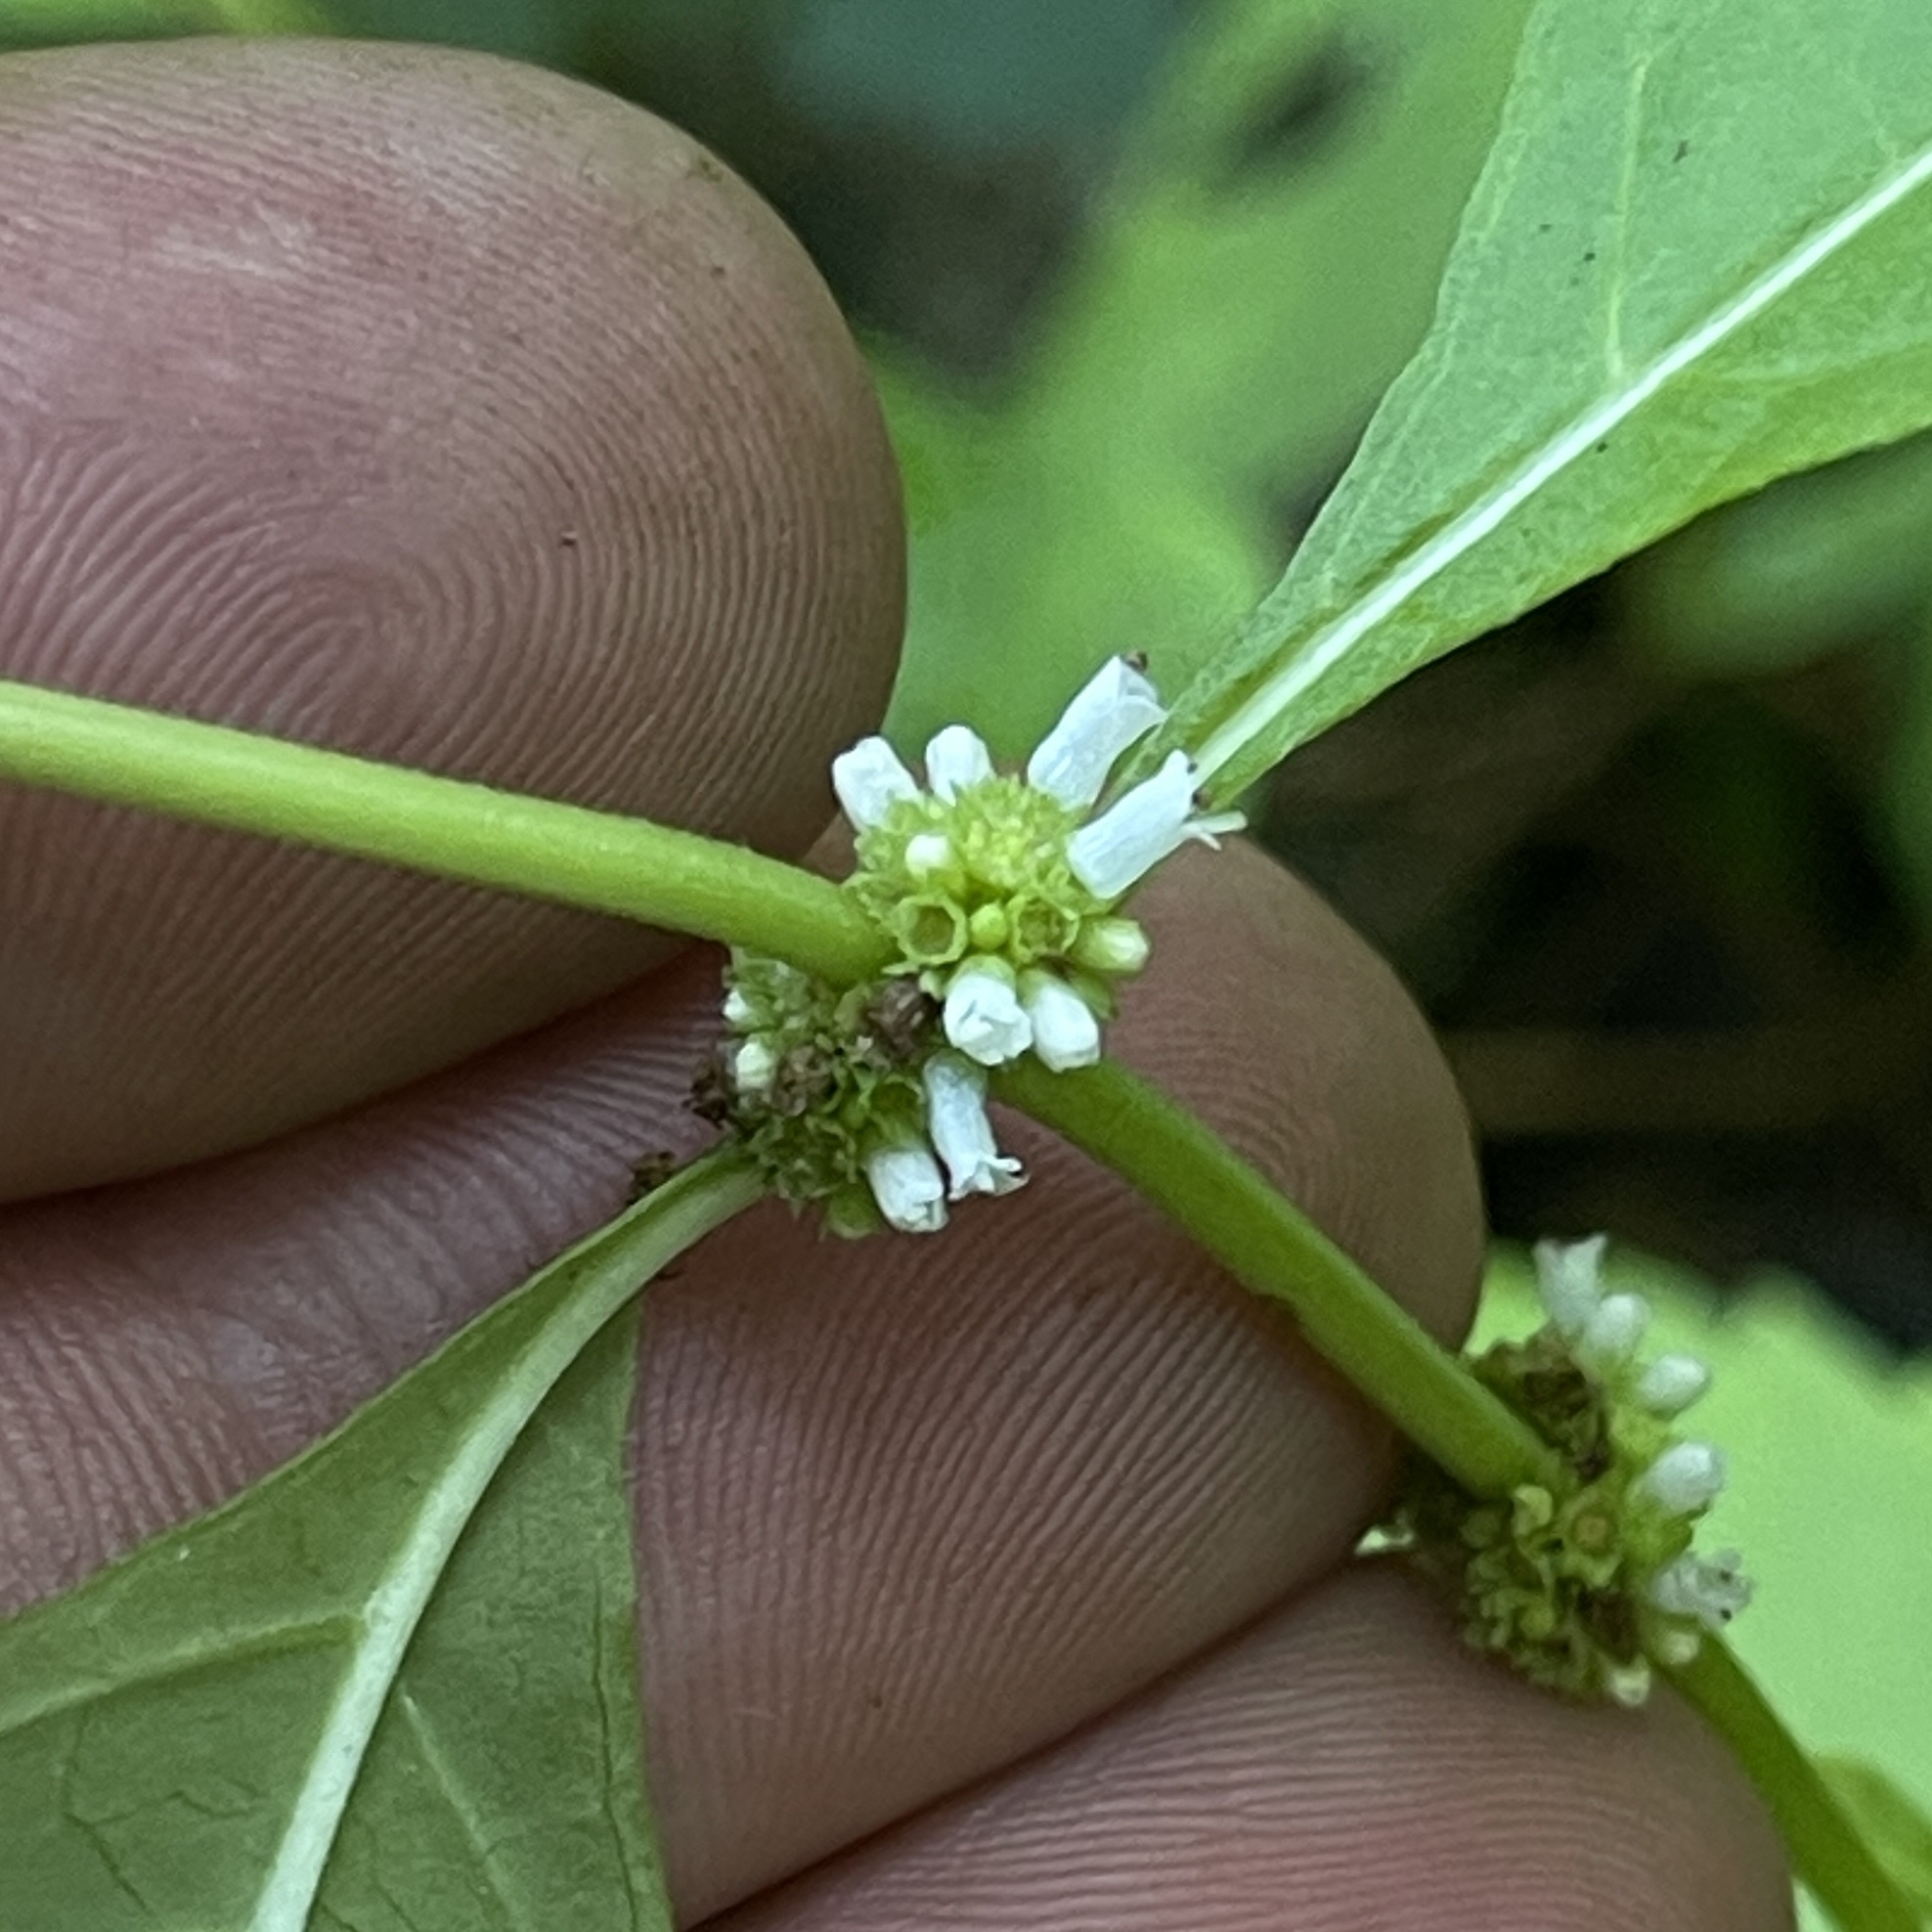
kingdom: Plantae
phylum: Tracheophyta
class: Magnoliopsida
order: Lamiales
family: Lamiaceae
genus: Lycopus
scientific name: Lycopus virginicus
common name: Bugleweed
